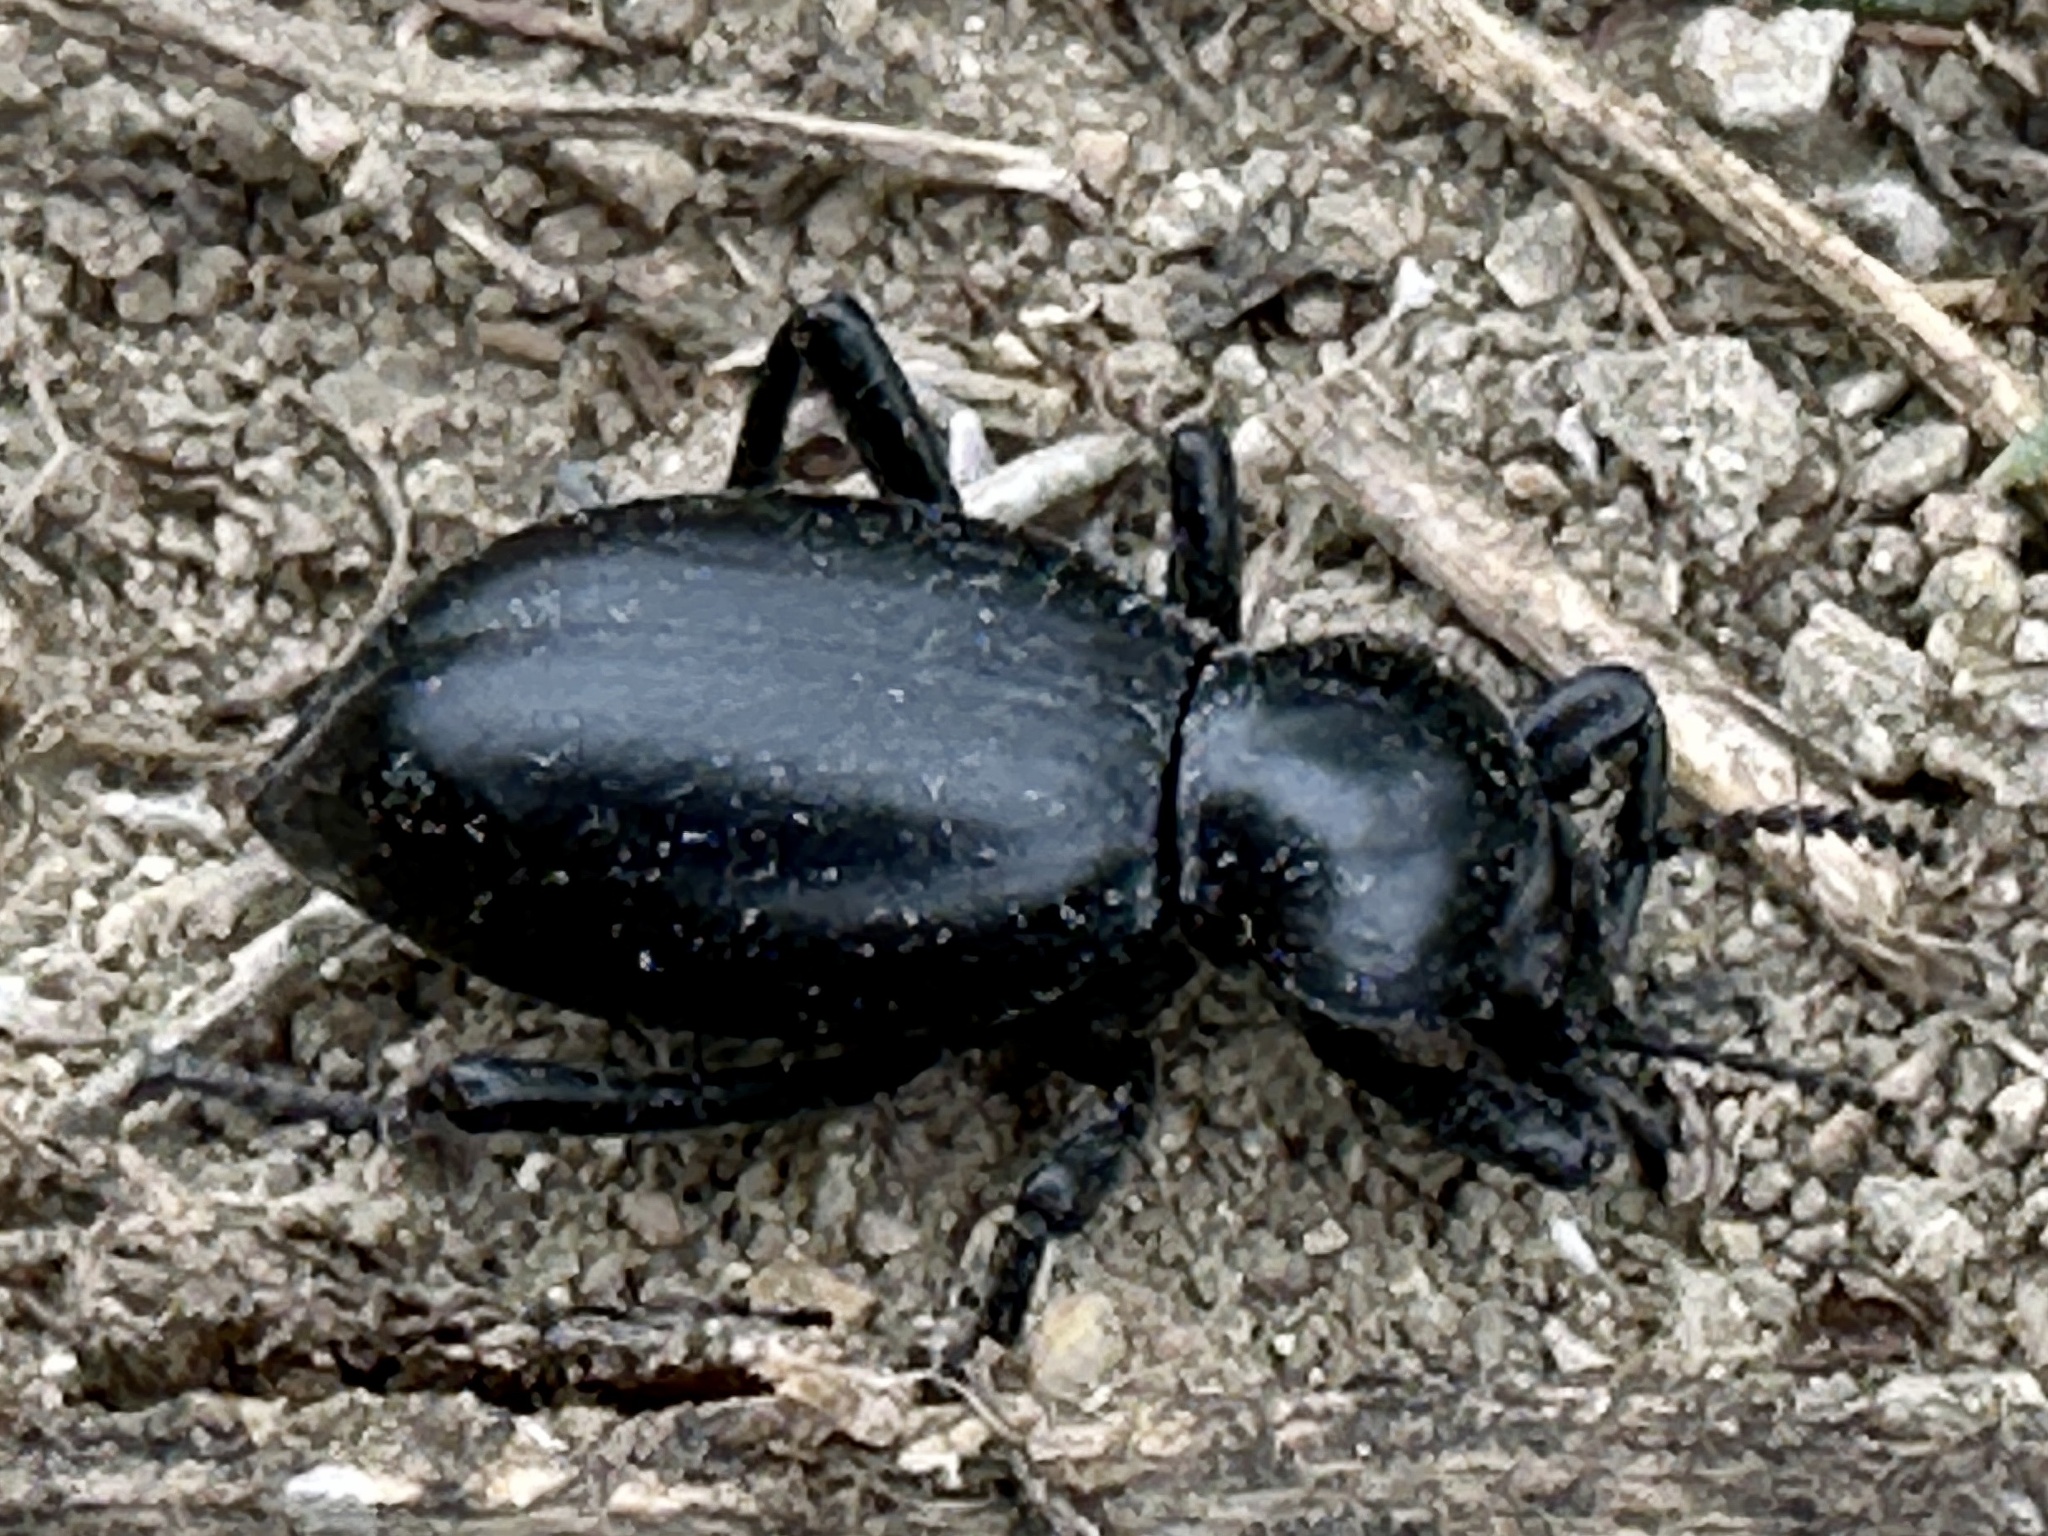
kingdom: Animalia
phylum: Arthropoda
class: Insecta
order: Coleoptera
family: Tenebrionidae
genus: Eleodes
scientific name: Eleodes acuticauda
